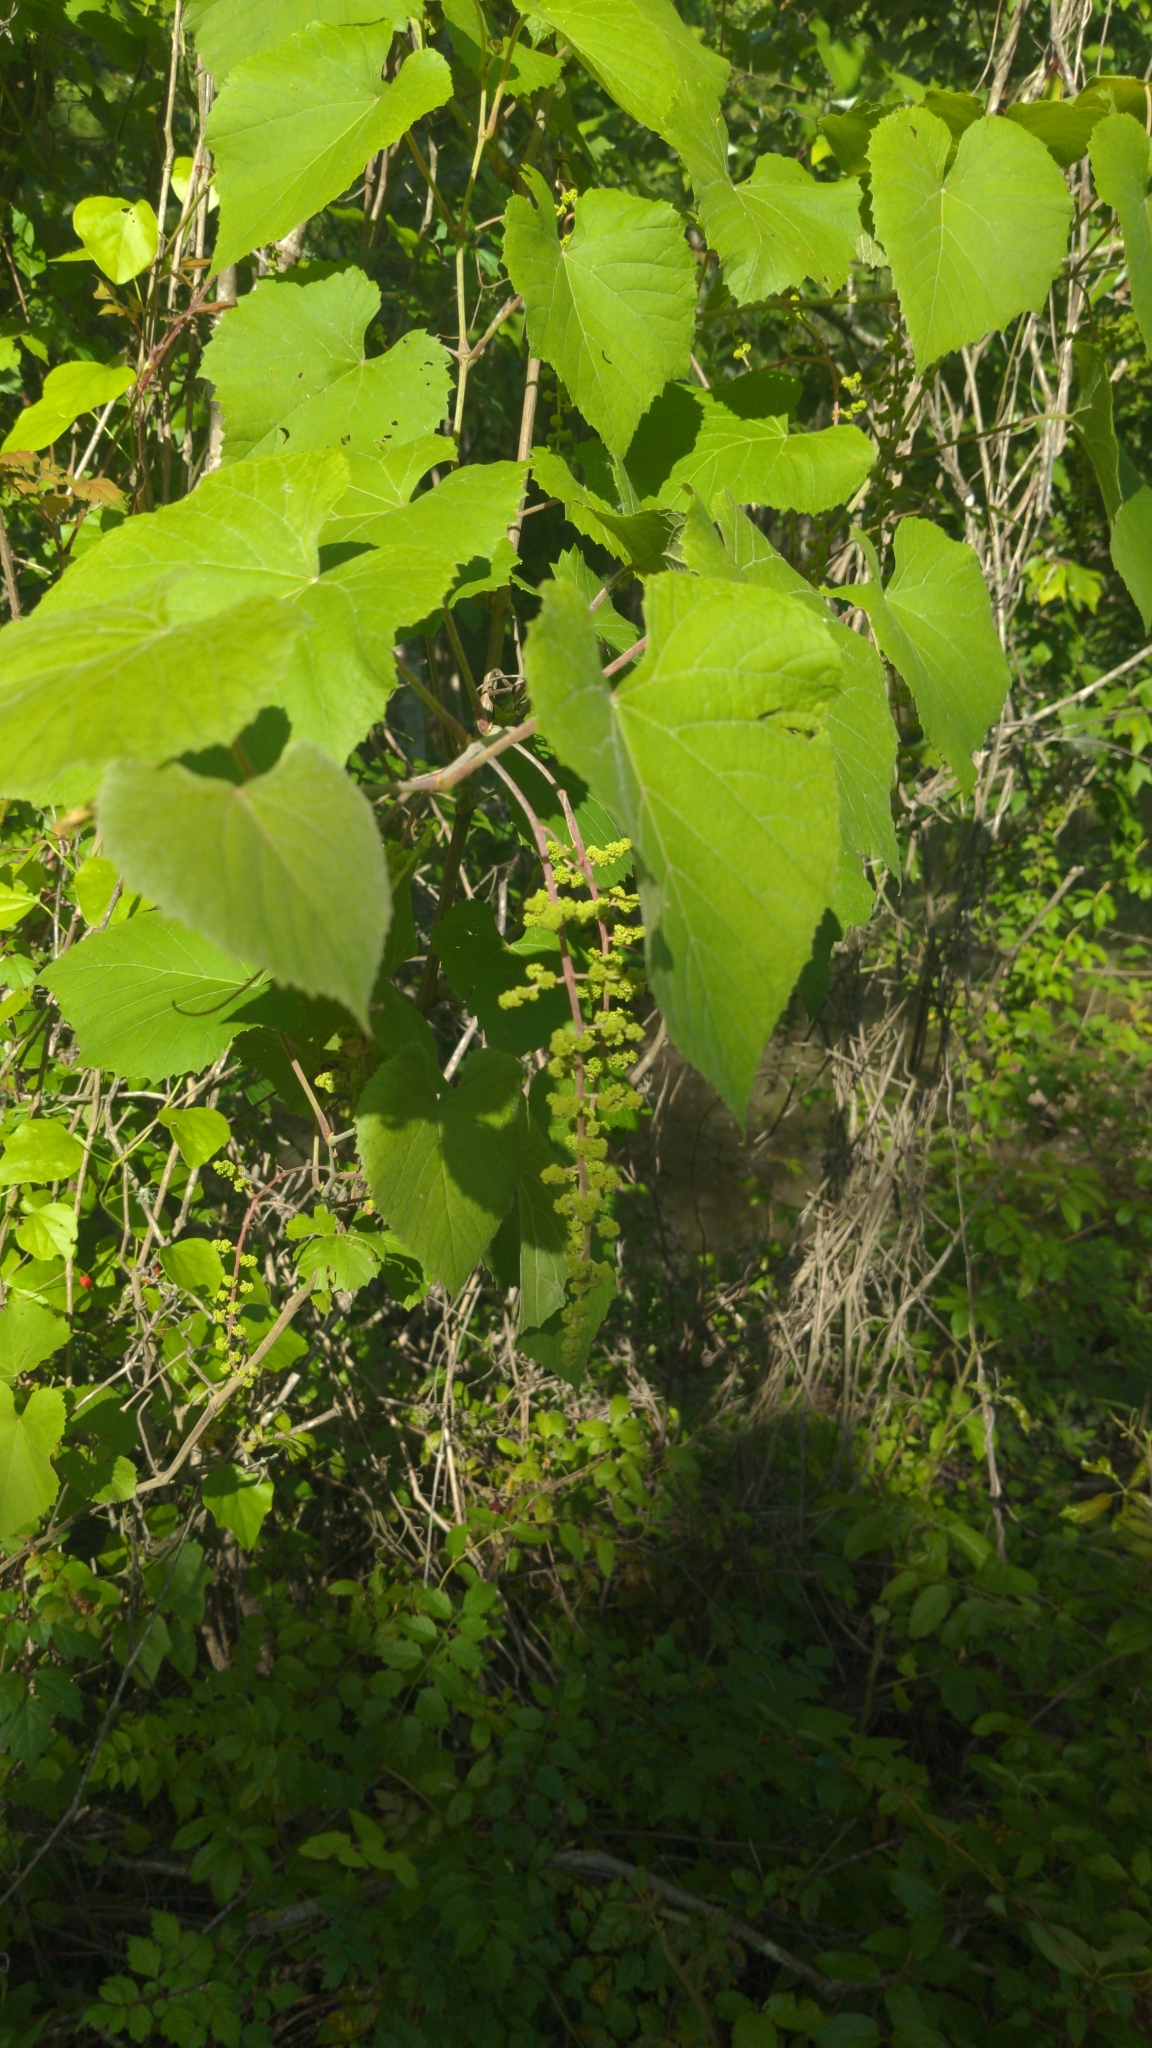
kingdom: Plantae
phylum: Tracheophyta
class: Magnoliopsida
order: Vitales
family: Vitaceae
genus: Vitis
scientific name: Vitis rotundifolia
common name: Muscadine grape
